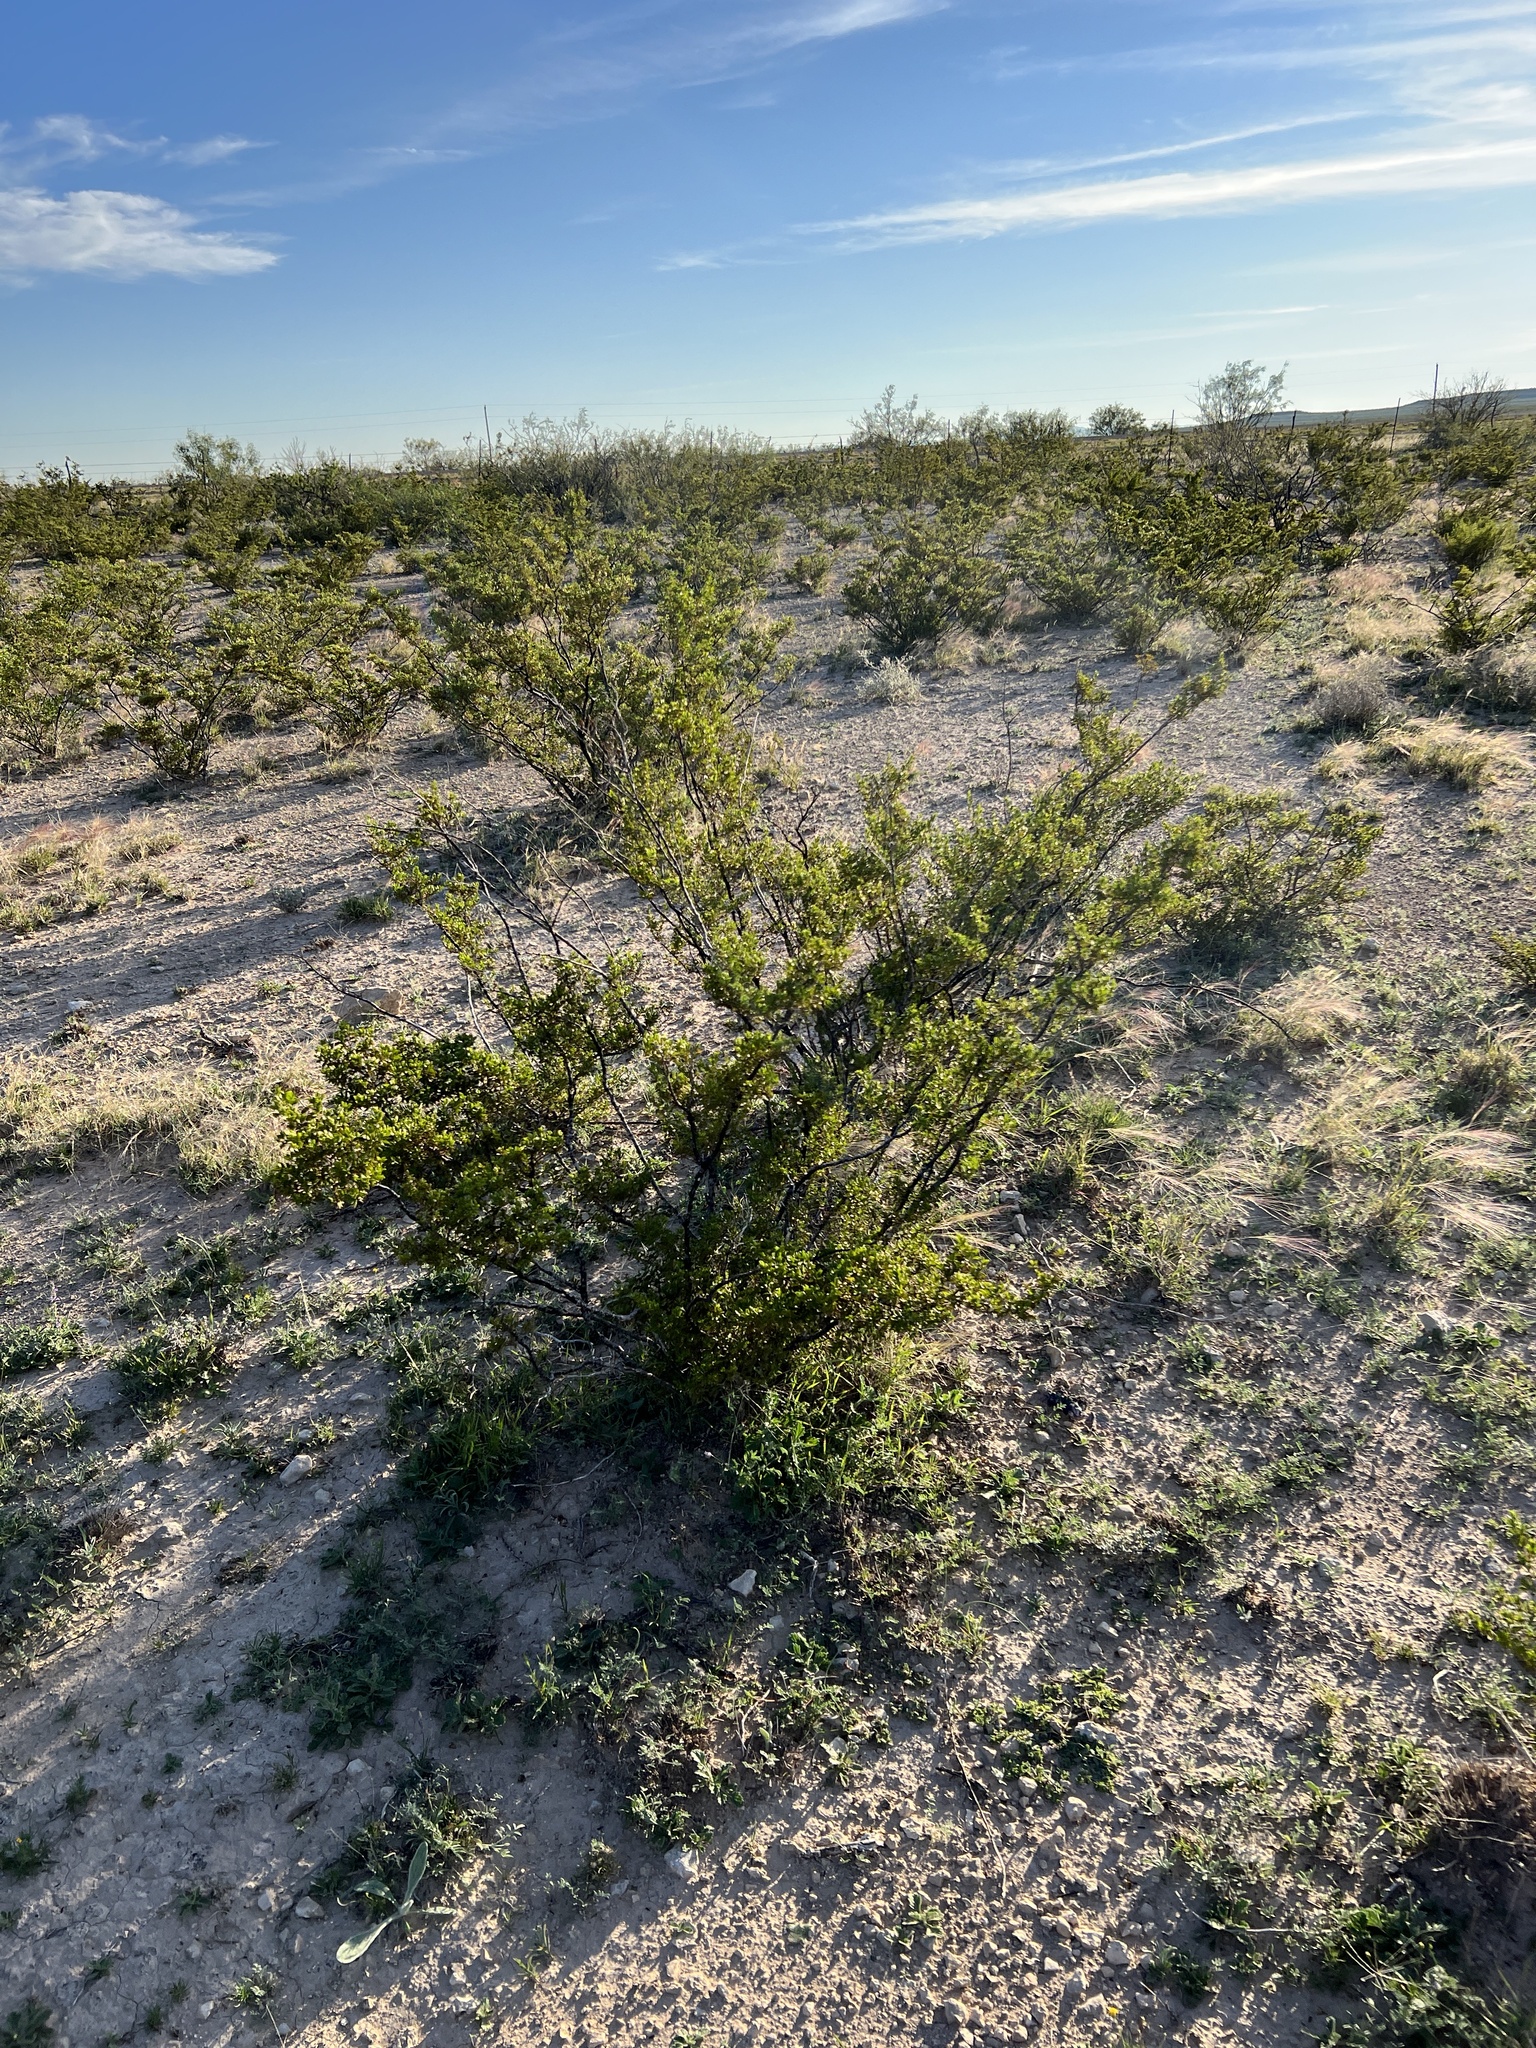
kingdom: Plantae
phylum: Tracheophyta
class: Magnoliopsida
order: Zygophyllales
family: Zygophyllaceae
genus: Larrea
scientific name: Larrea tridentata
